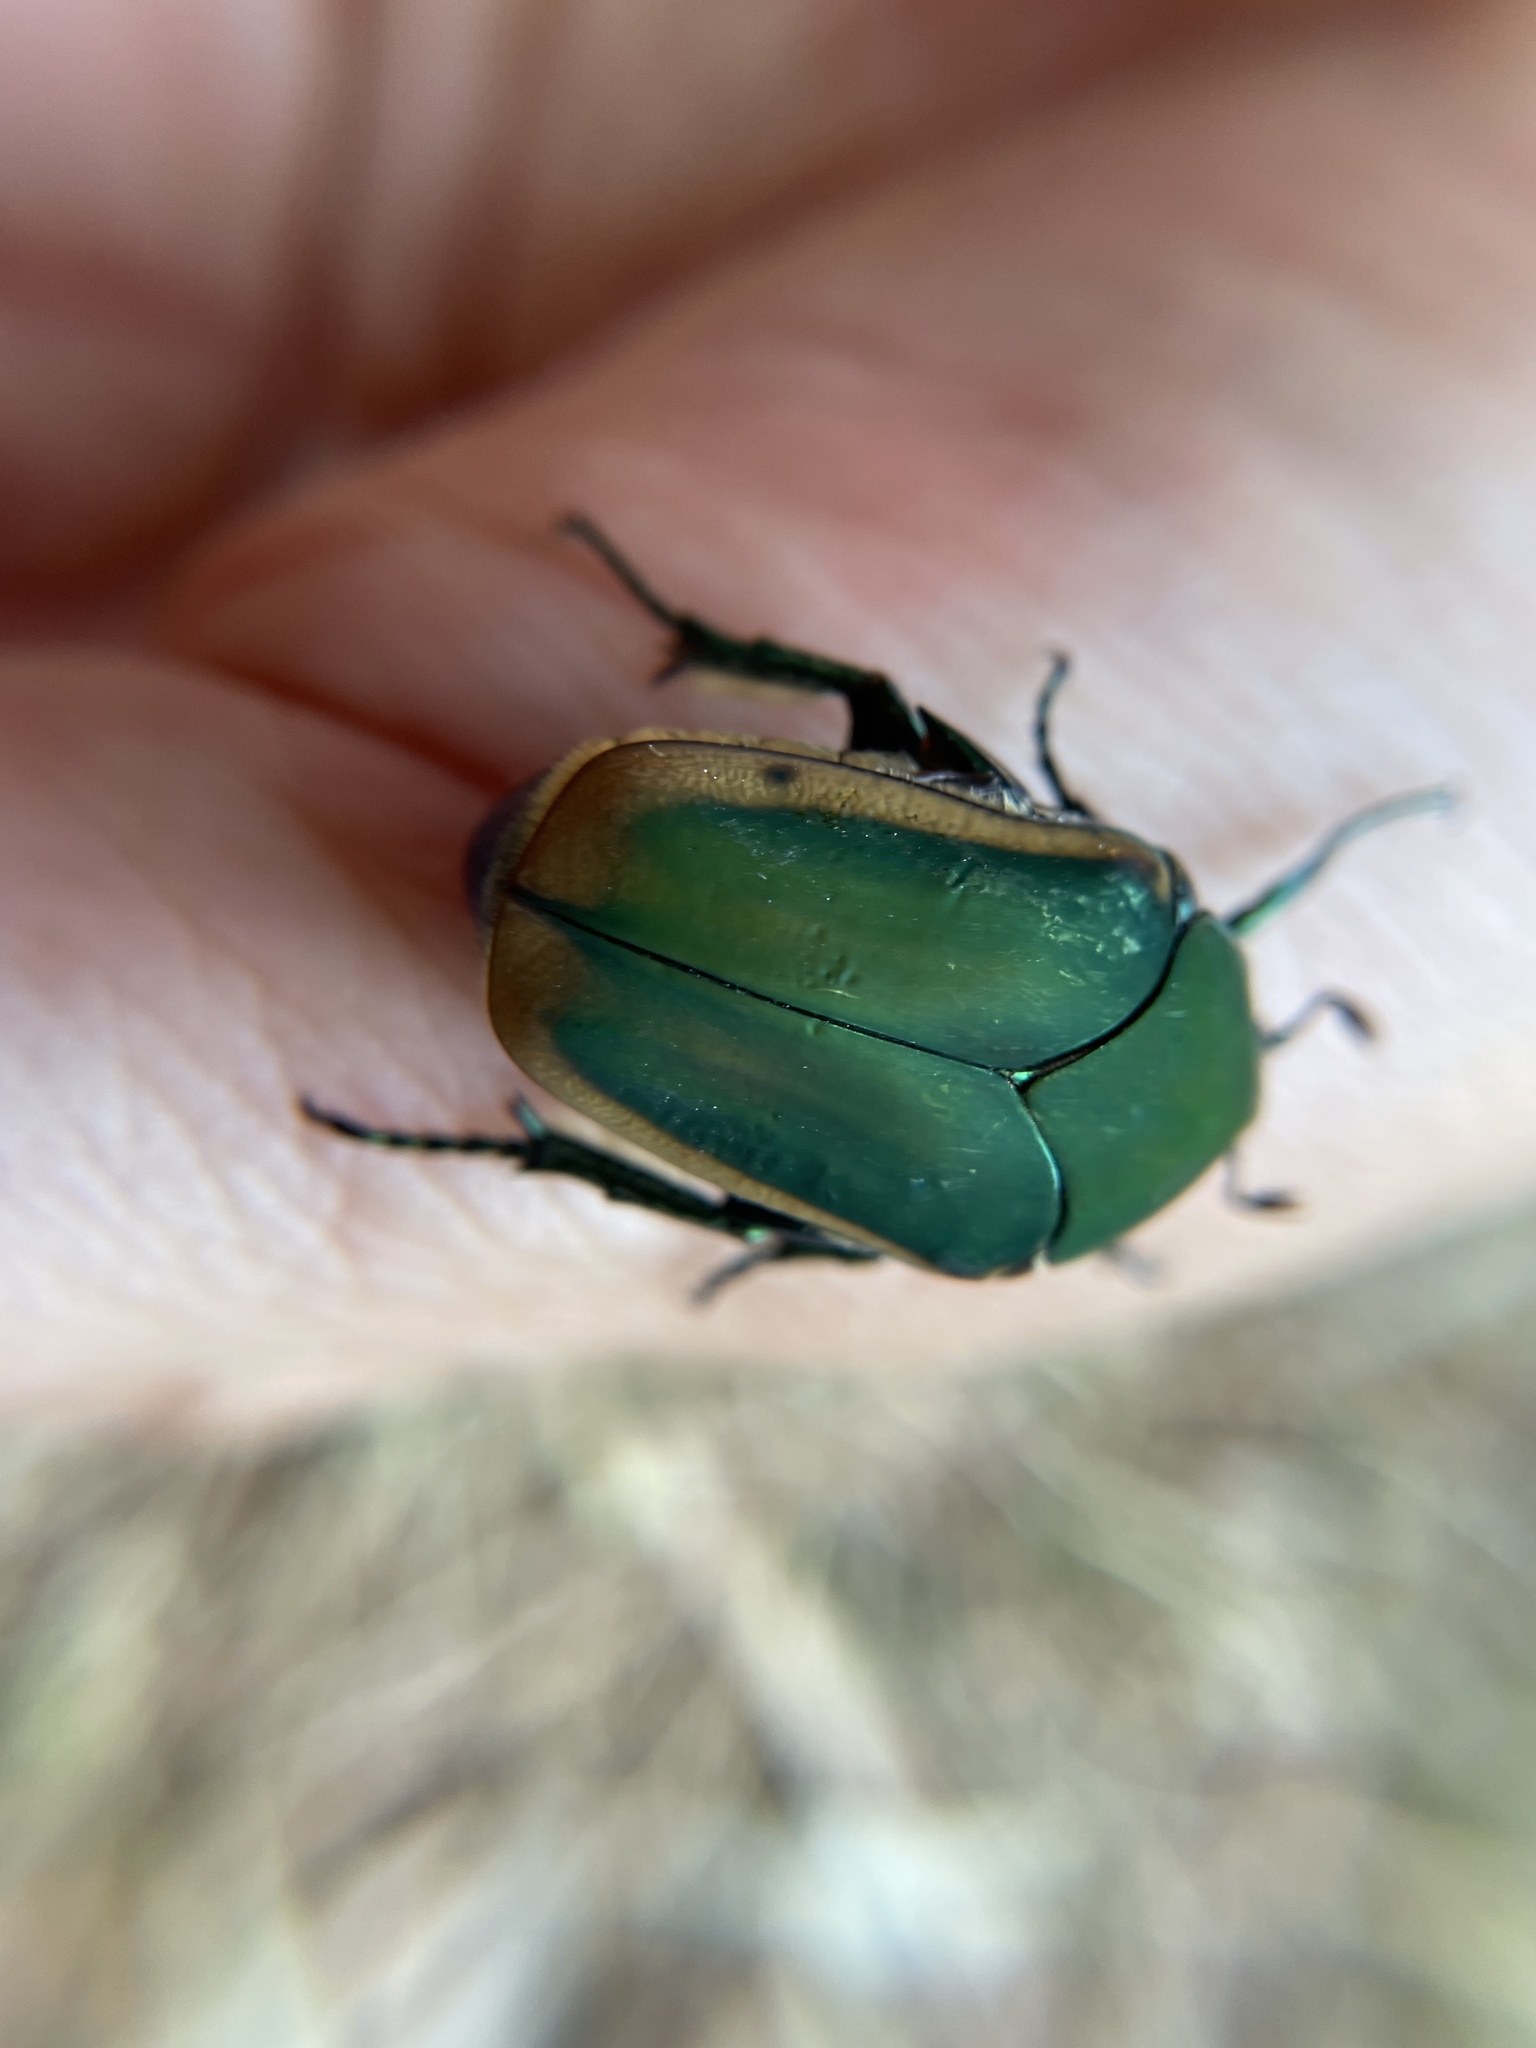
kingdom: Animalia
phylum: Arthropoda
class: Insecta
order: Coleoptera
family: Scarabaeidae
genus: Cotinis
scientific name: Cotinis mutabilis
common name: Figeater beetle
